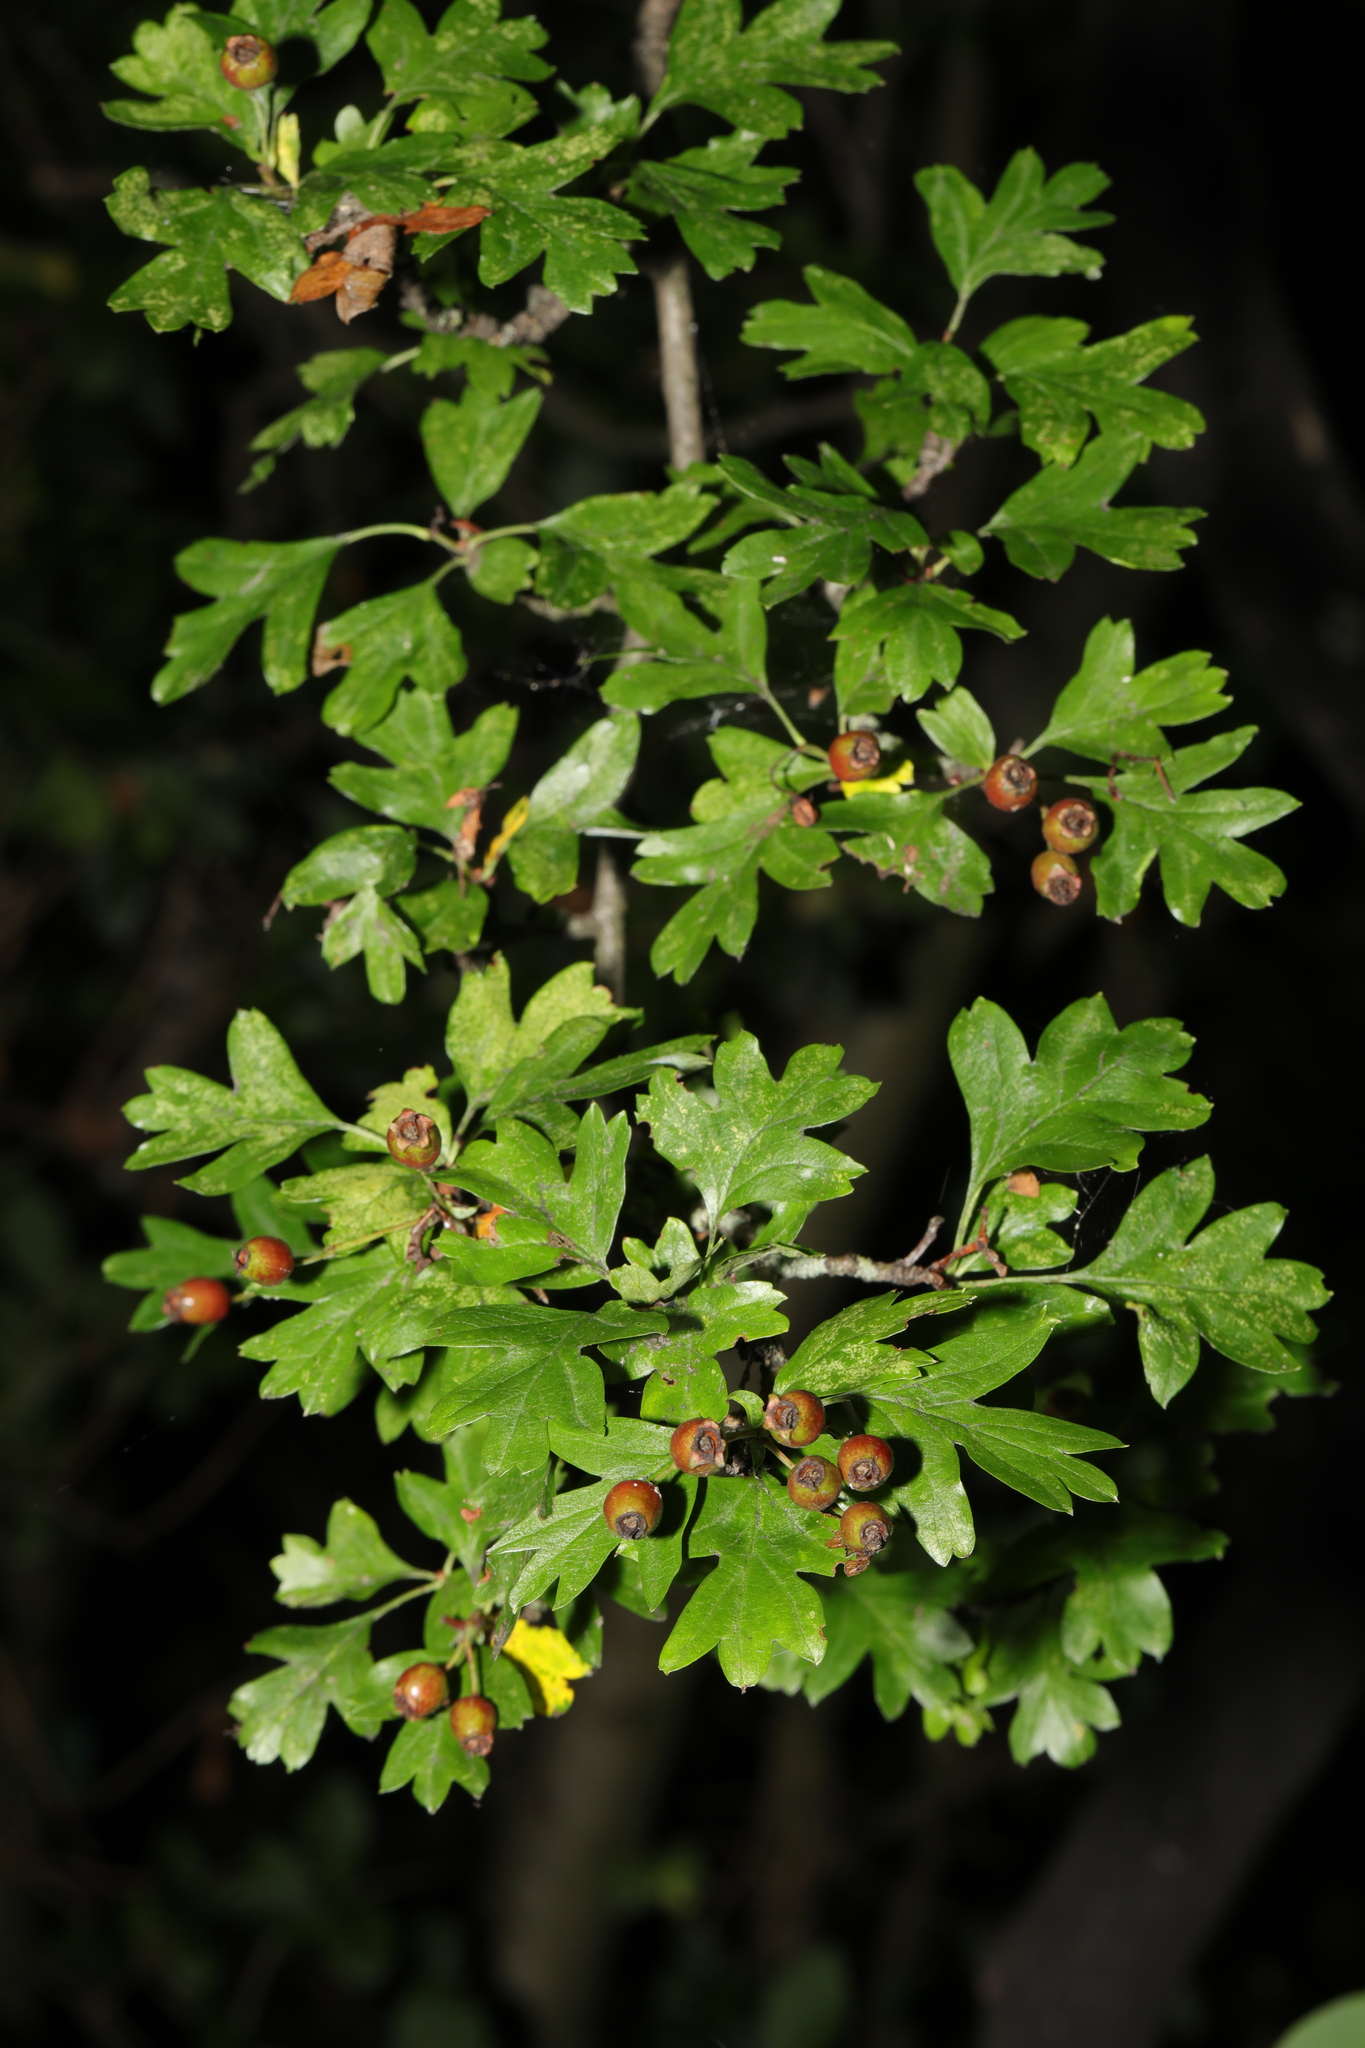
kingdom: Plantae
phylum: Tracheophyta
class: Magnoliopsida
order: Rosales
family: Rosaceae
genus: Crataegus
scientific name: Crataegus monogyna
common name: Hawthorn
